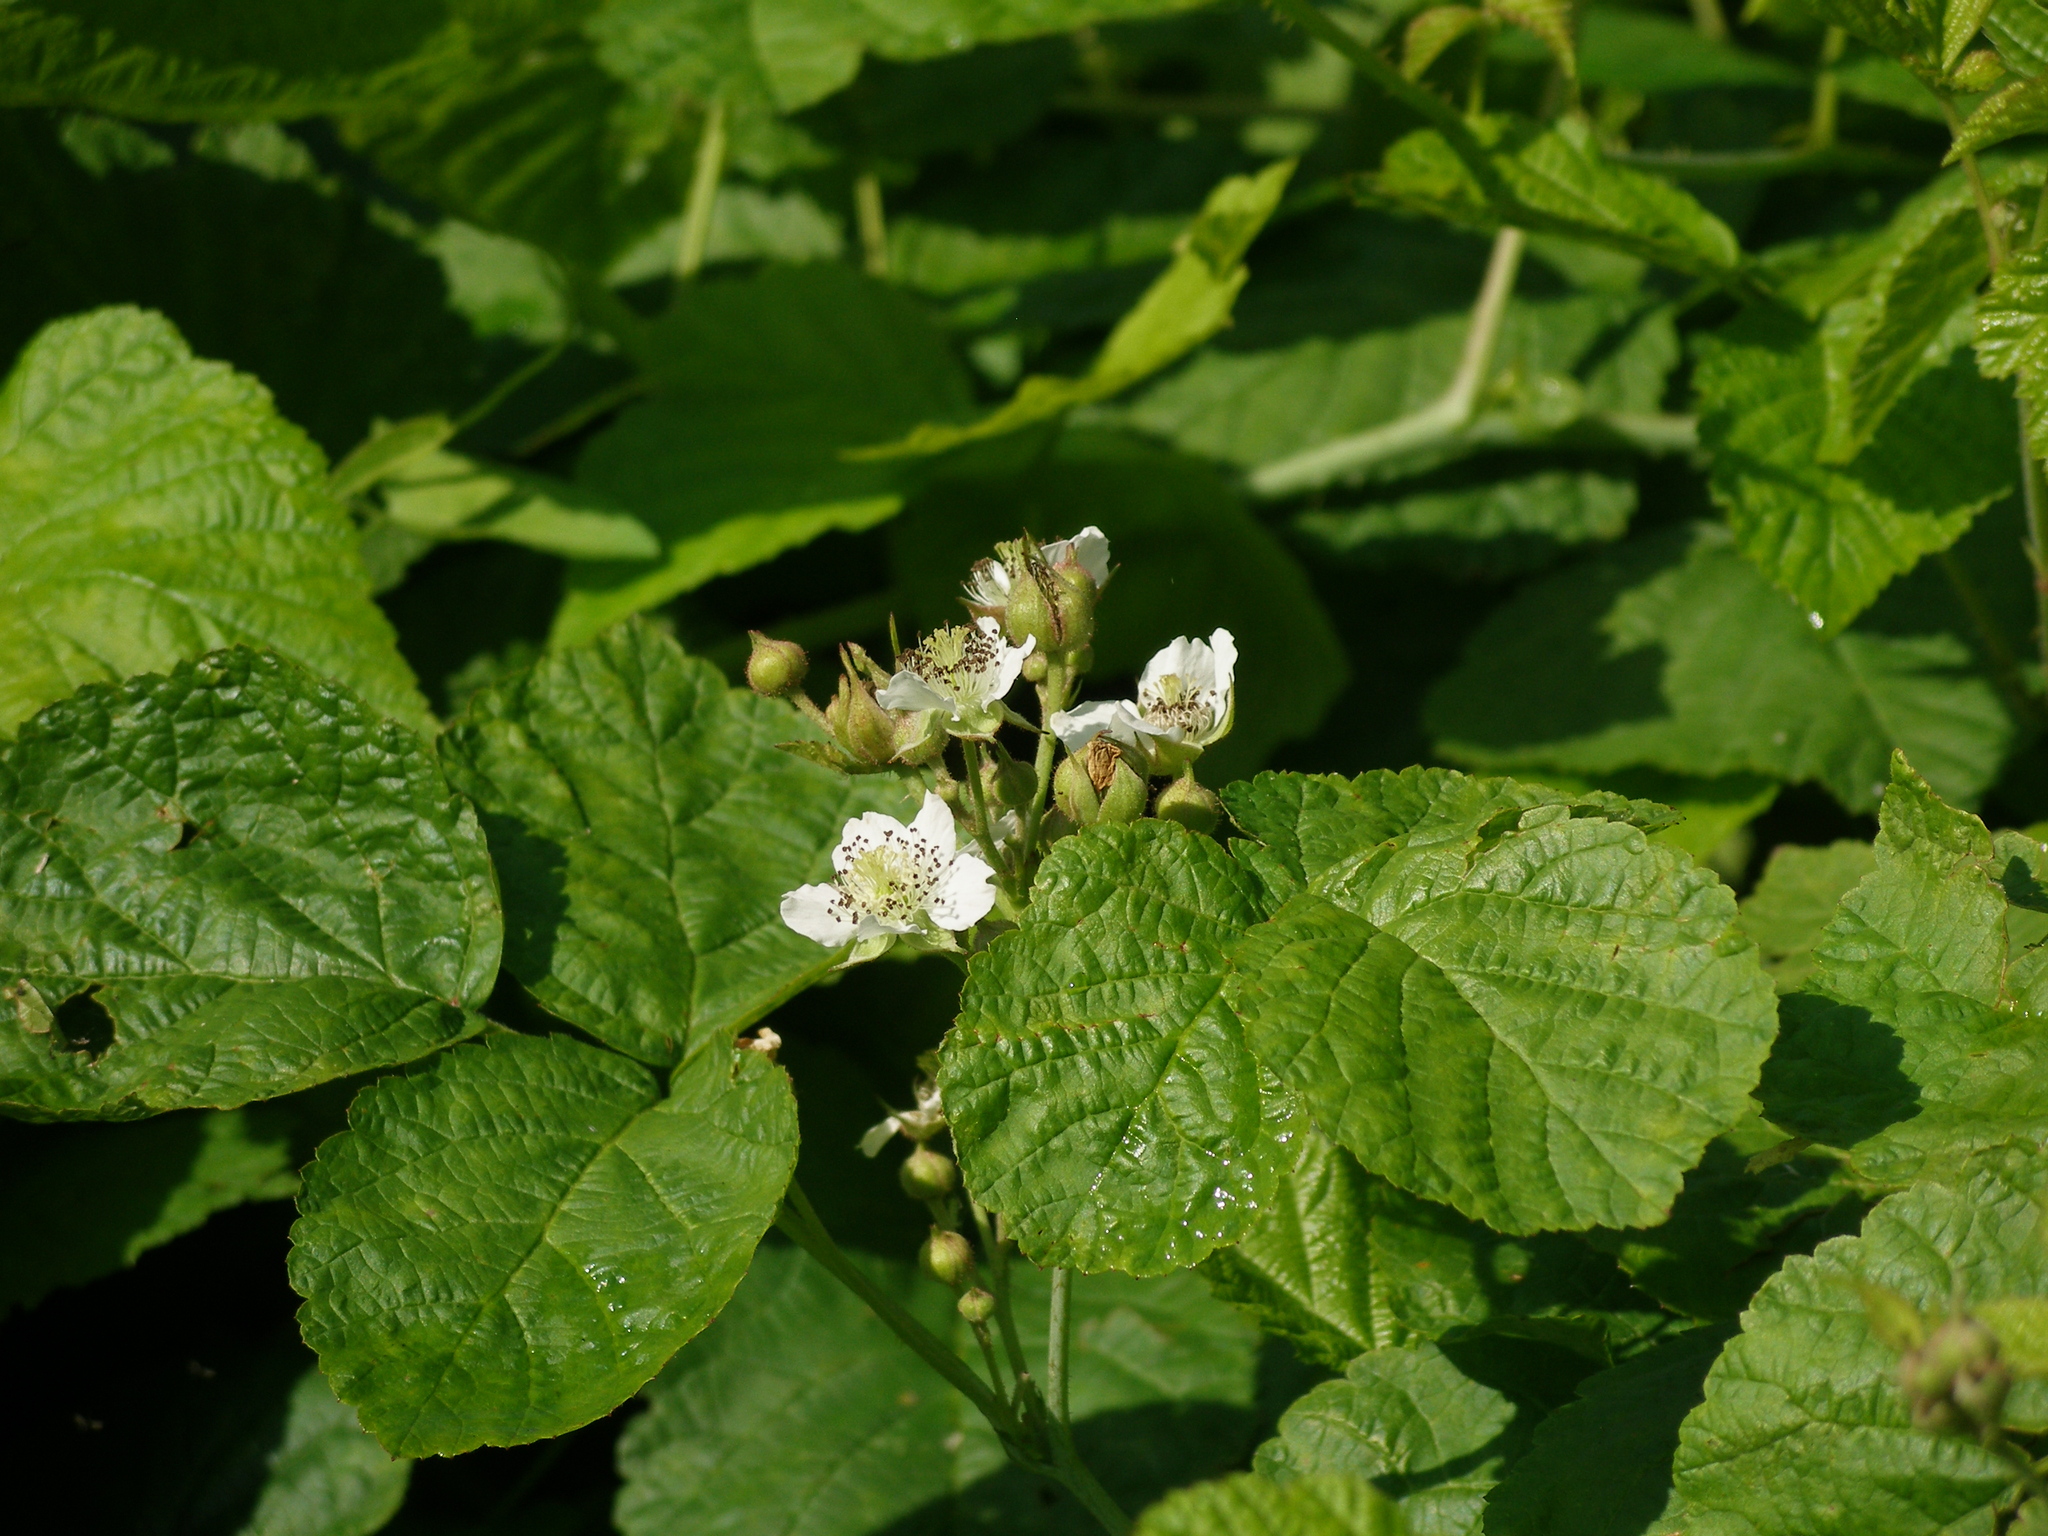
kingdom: Plantae
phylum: Tracheophyta
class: Magnoliopsida
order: Rosales
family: Rosaceae
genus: Rubus
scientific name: Rubus caesius
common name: Dewberry
